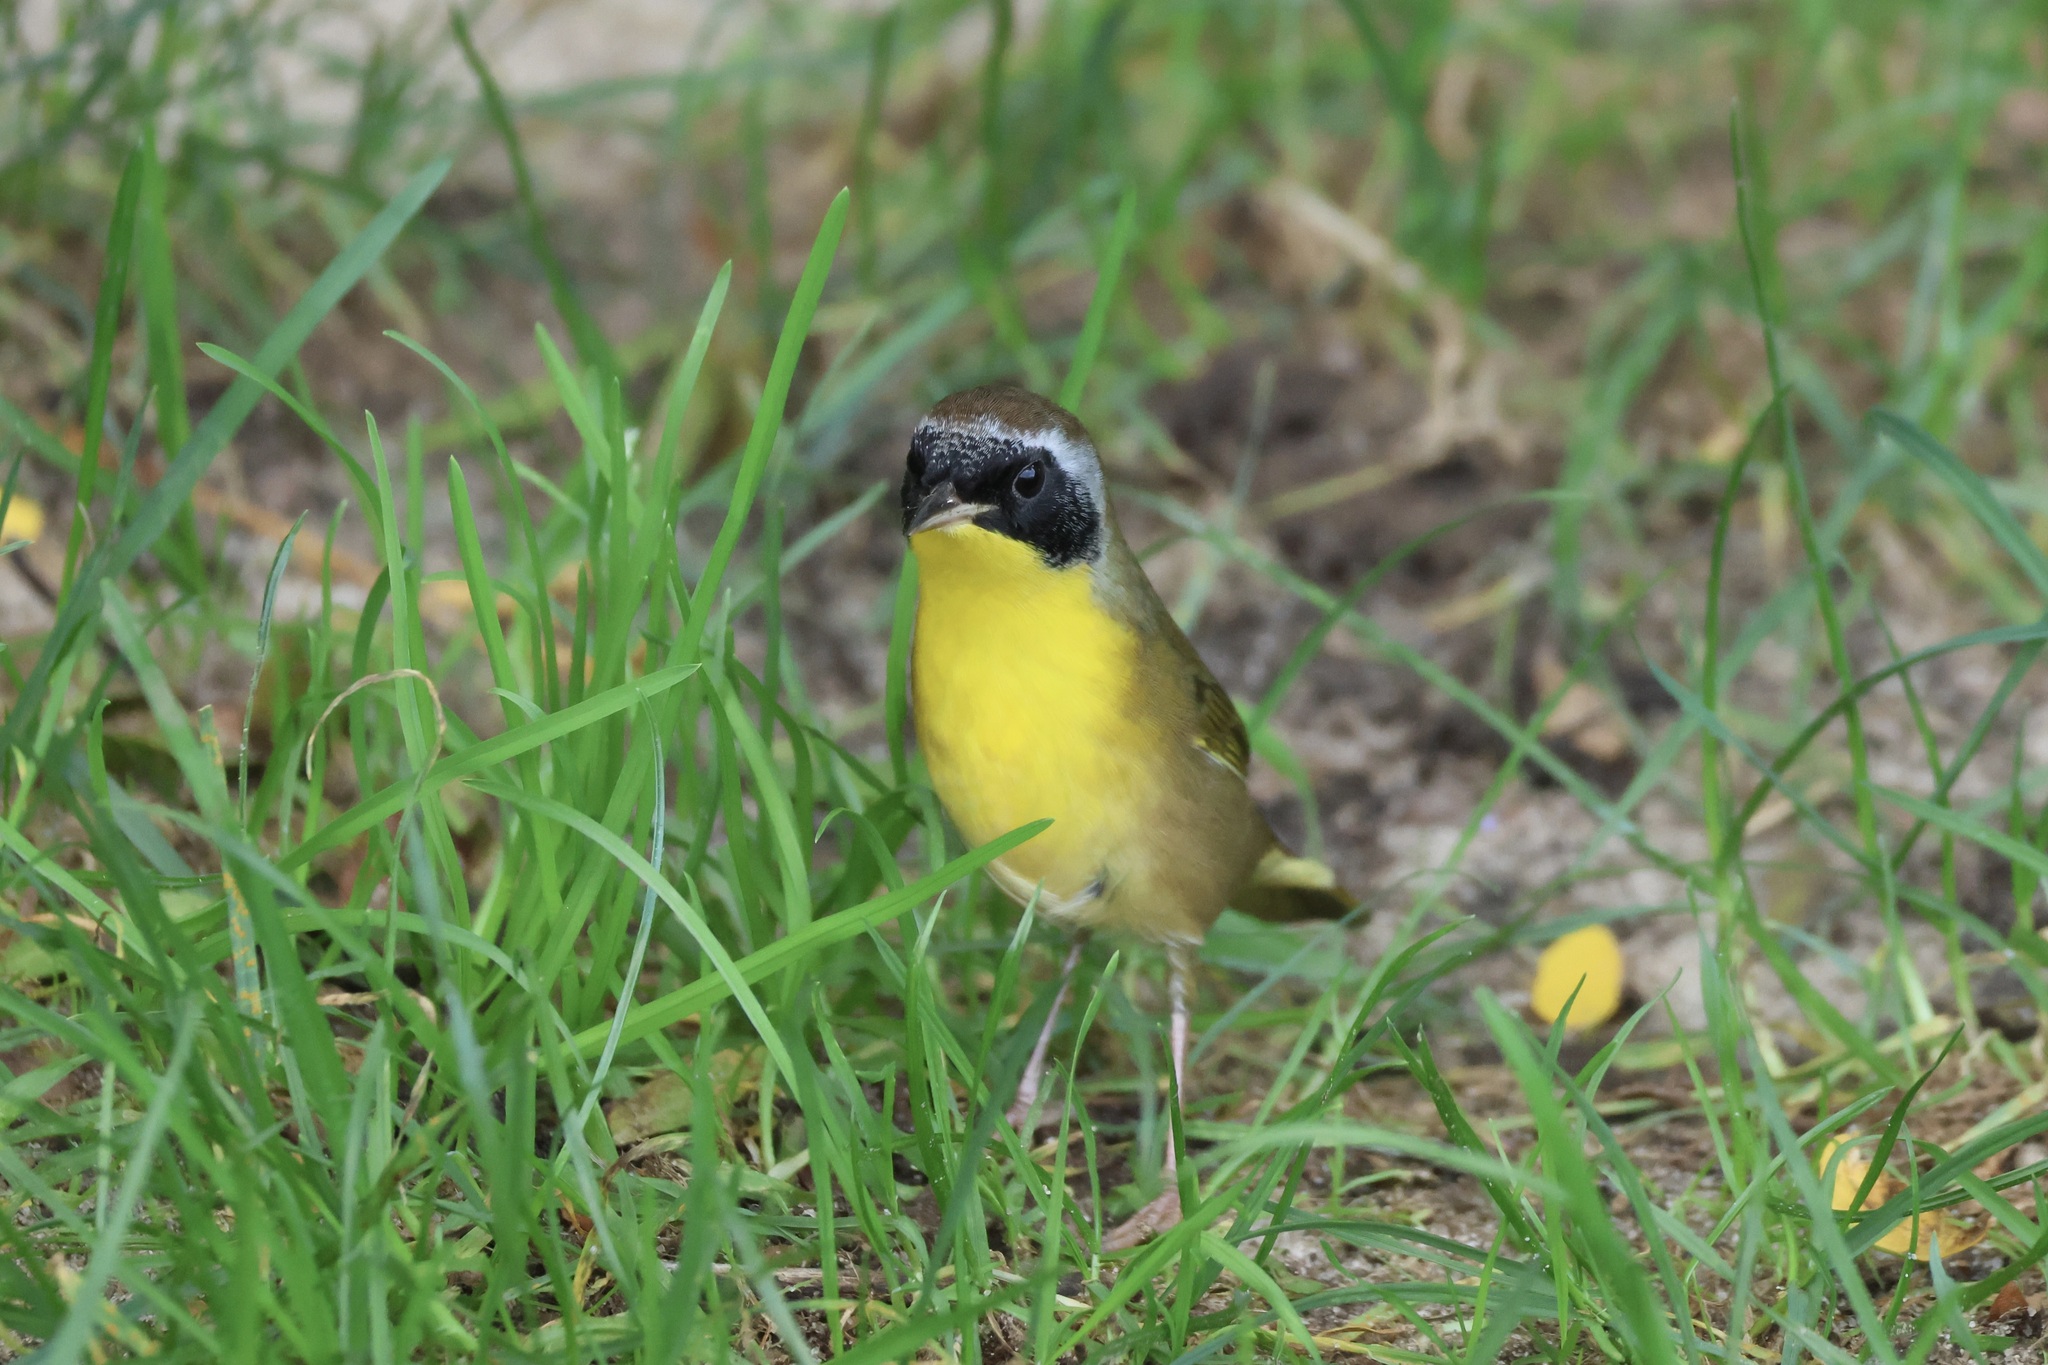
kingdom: Animalia
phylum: Chordata
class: Aves
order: Passeriformes
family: Parulidae
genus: Geothlypis
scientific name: Geothlypis trichas
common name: Common yellowthroat
